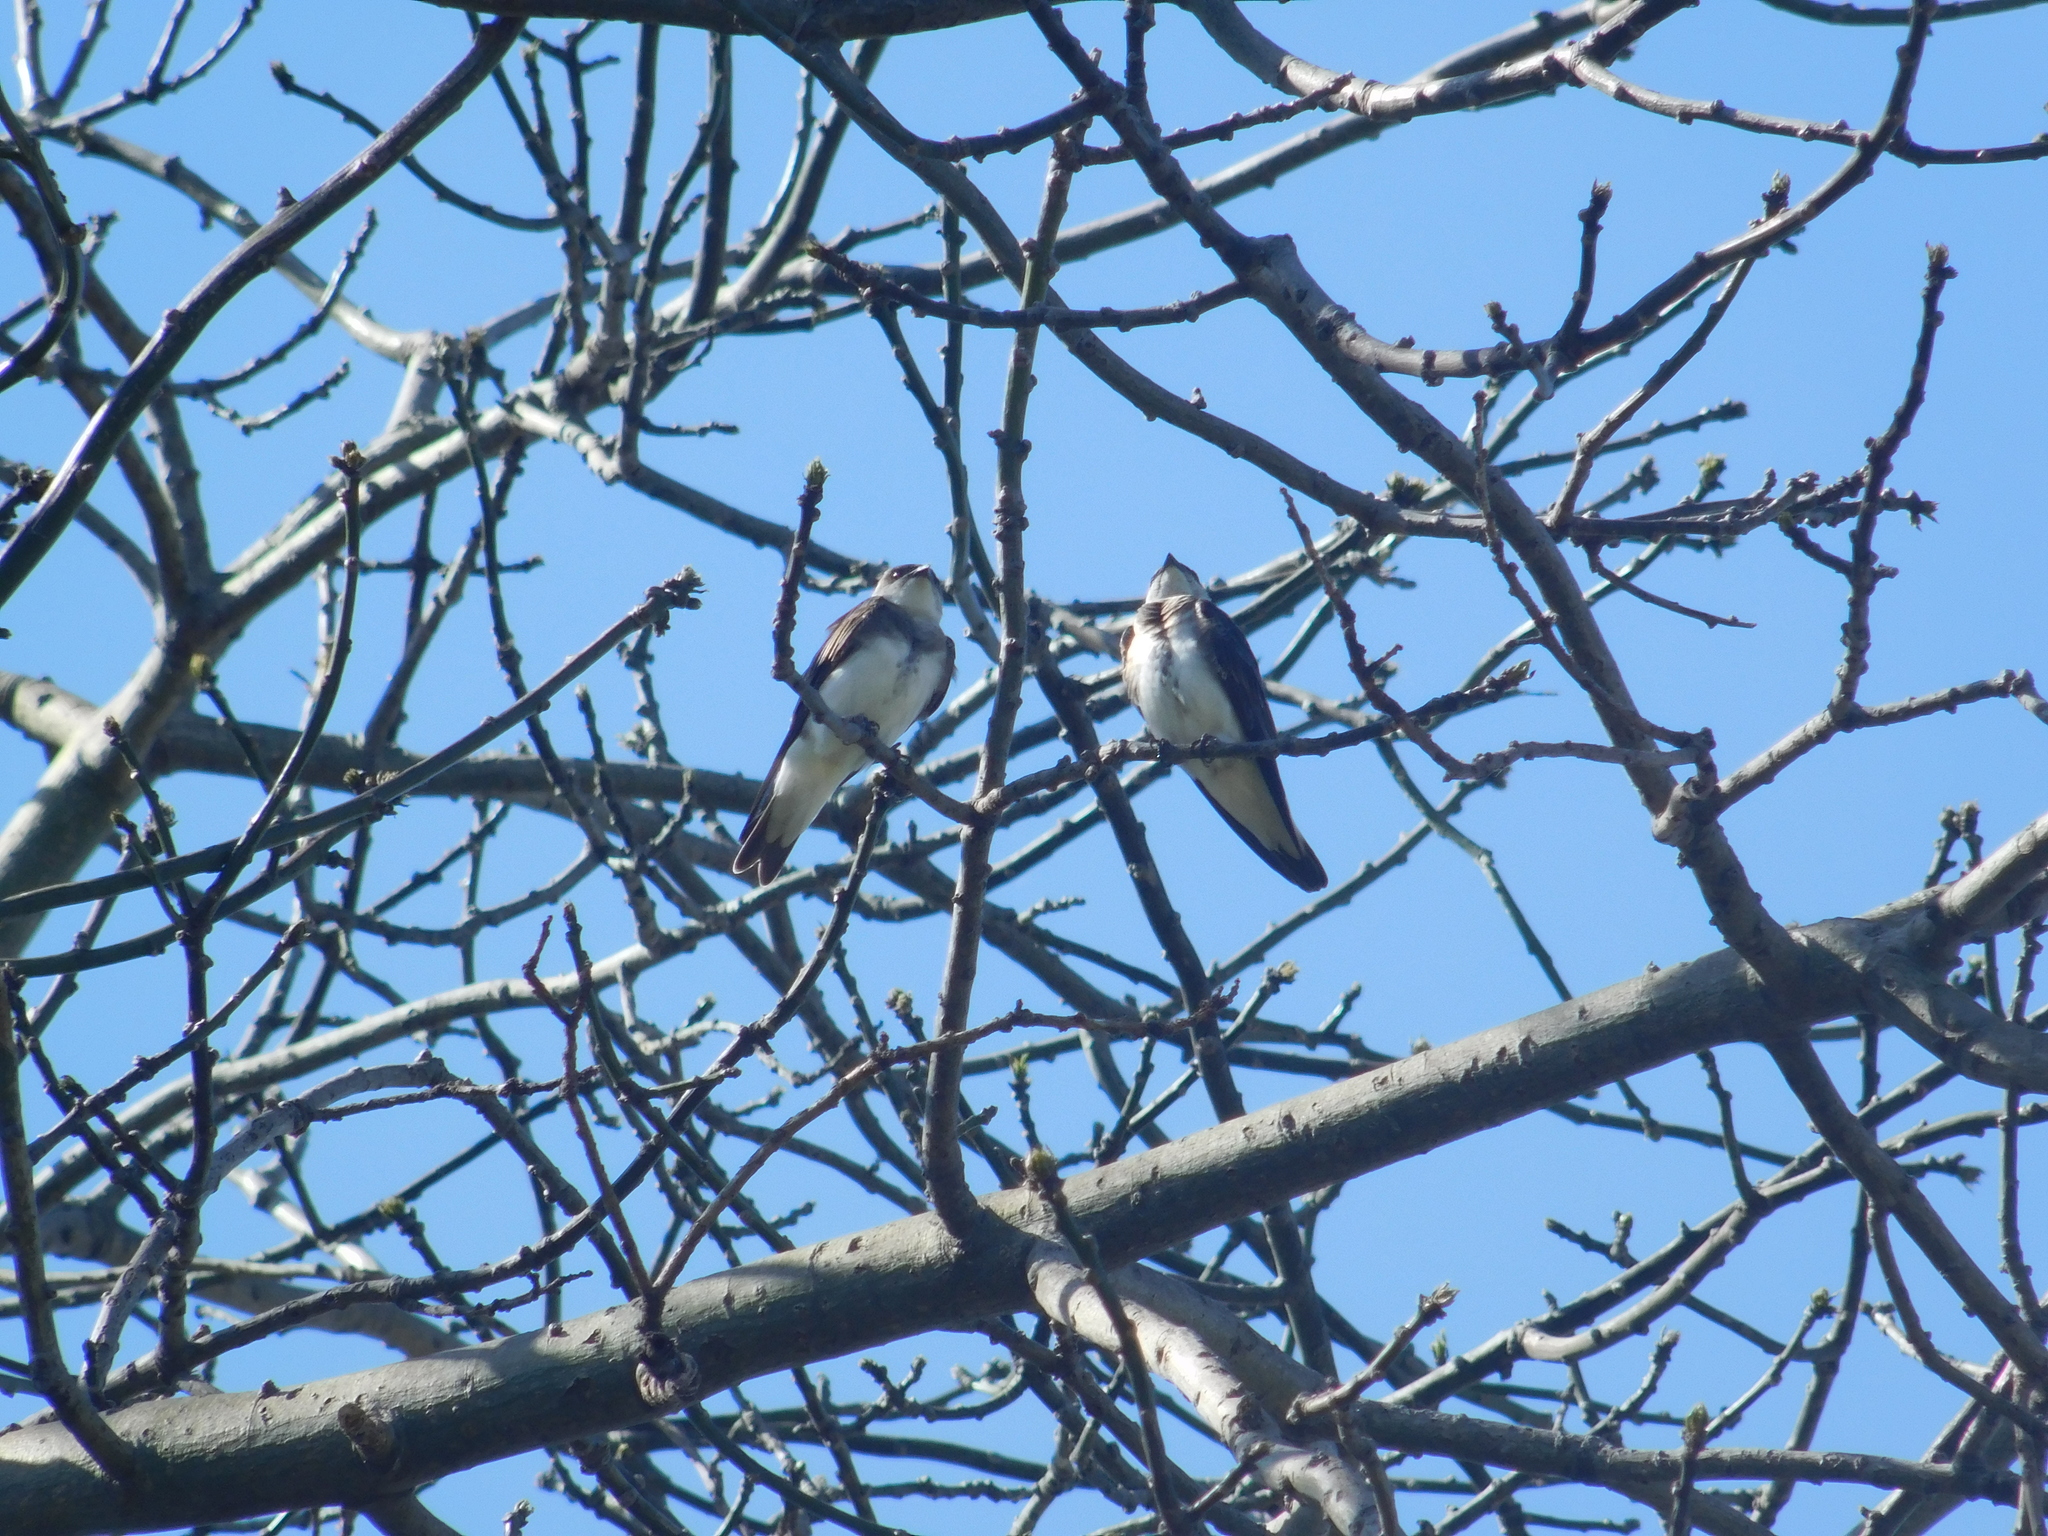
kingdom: Animalia
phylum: Chordata
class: Aves
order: Passeriformes
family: Hirundinidae
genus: Progne
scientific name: Progne tapera
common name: Brown-chested martin
